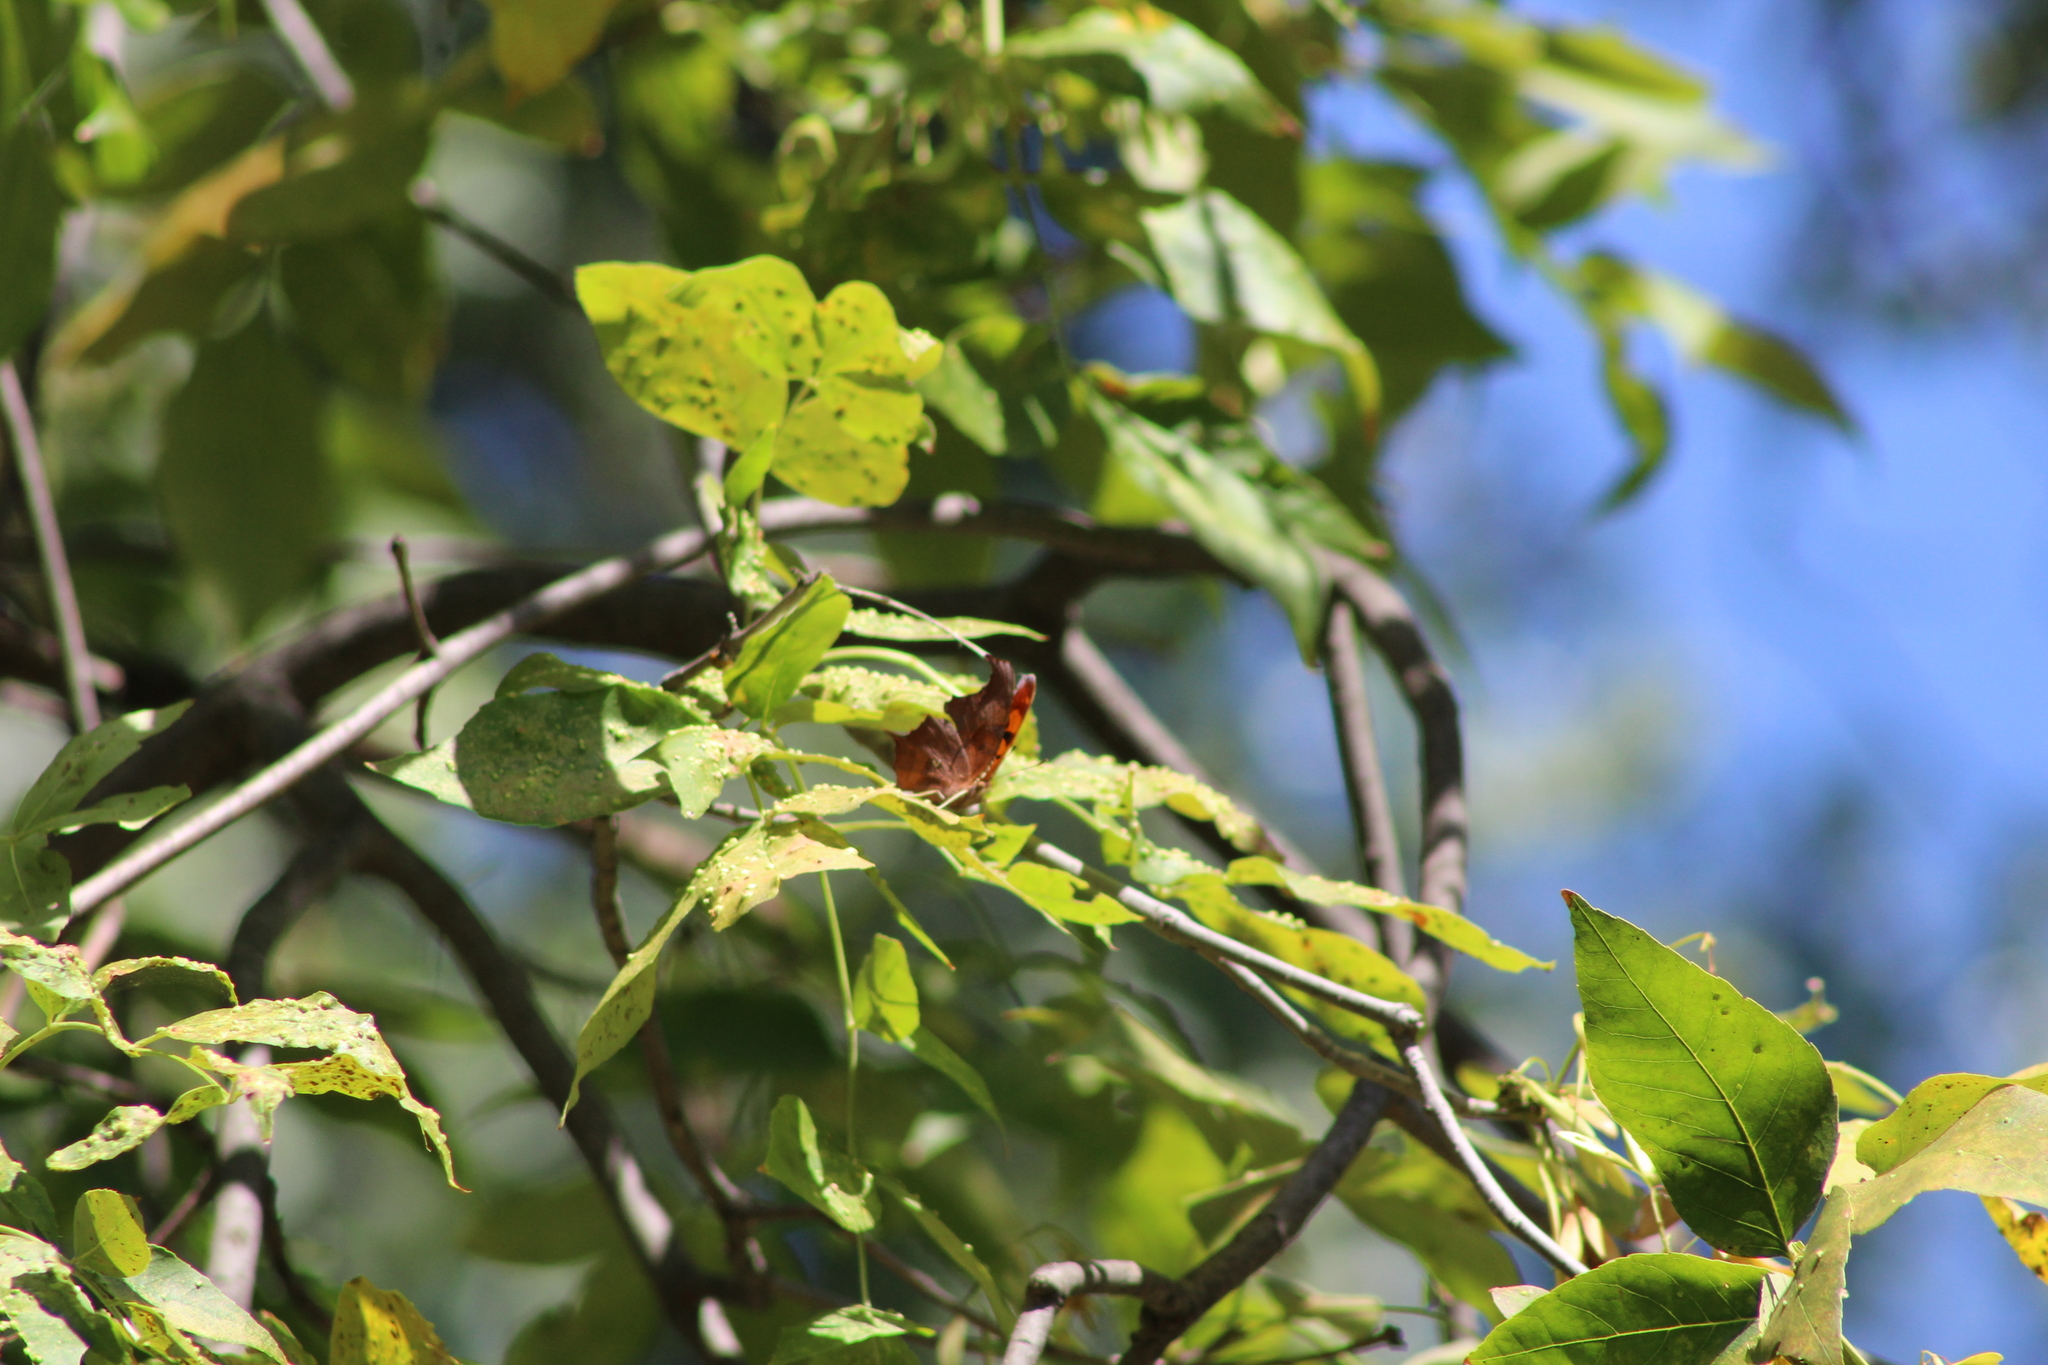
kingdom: Animalia
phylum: Arthropoda
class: Insecta
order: Lepidoptera
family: Nymphalidae
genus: Polygonia
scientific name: Polygonia interrogationis
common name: Question mark
